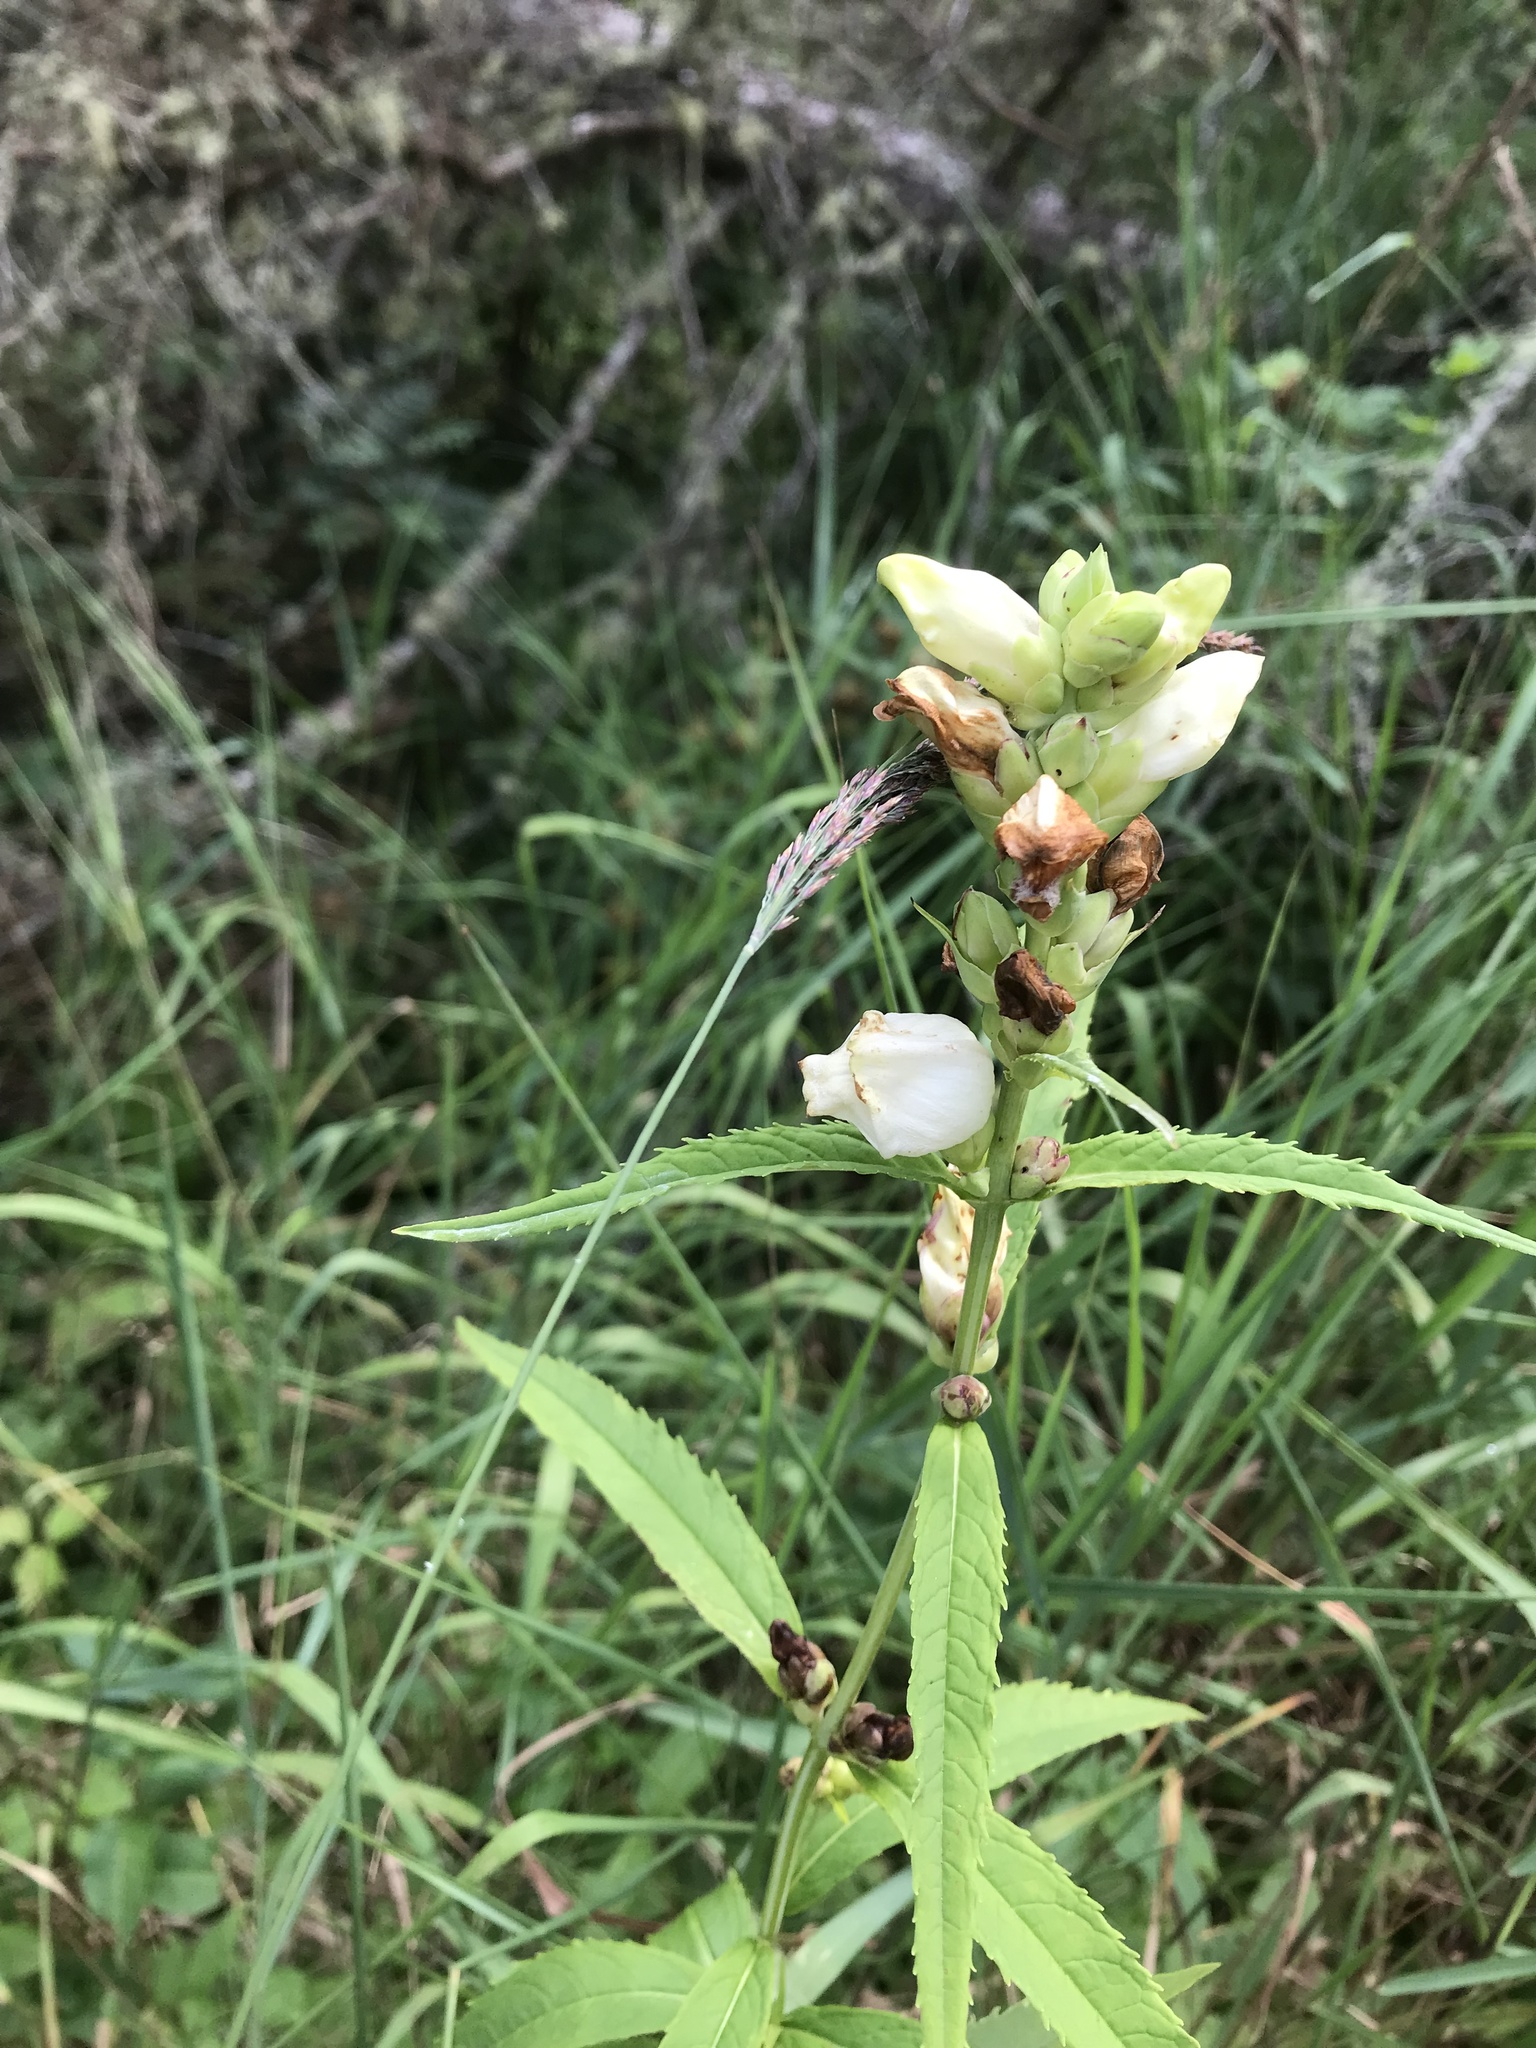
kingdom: Plantae
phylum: Tracheophyta
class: Magnoliopsida
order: Lamiales
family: Plantaginaceae
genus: Chelone
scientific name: Chelone glabra
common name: Snakehead
